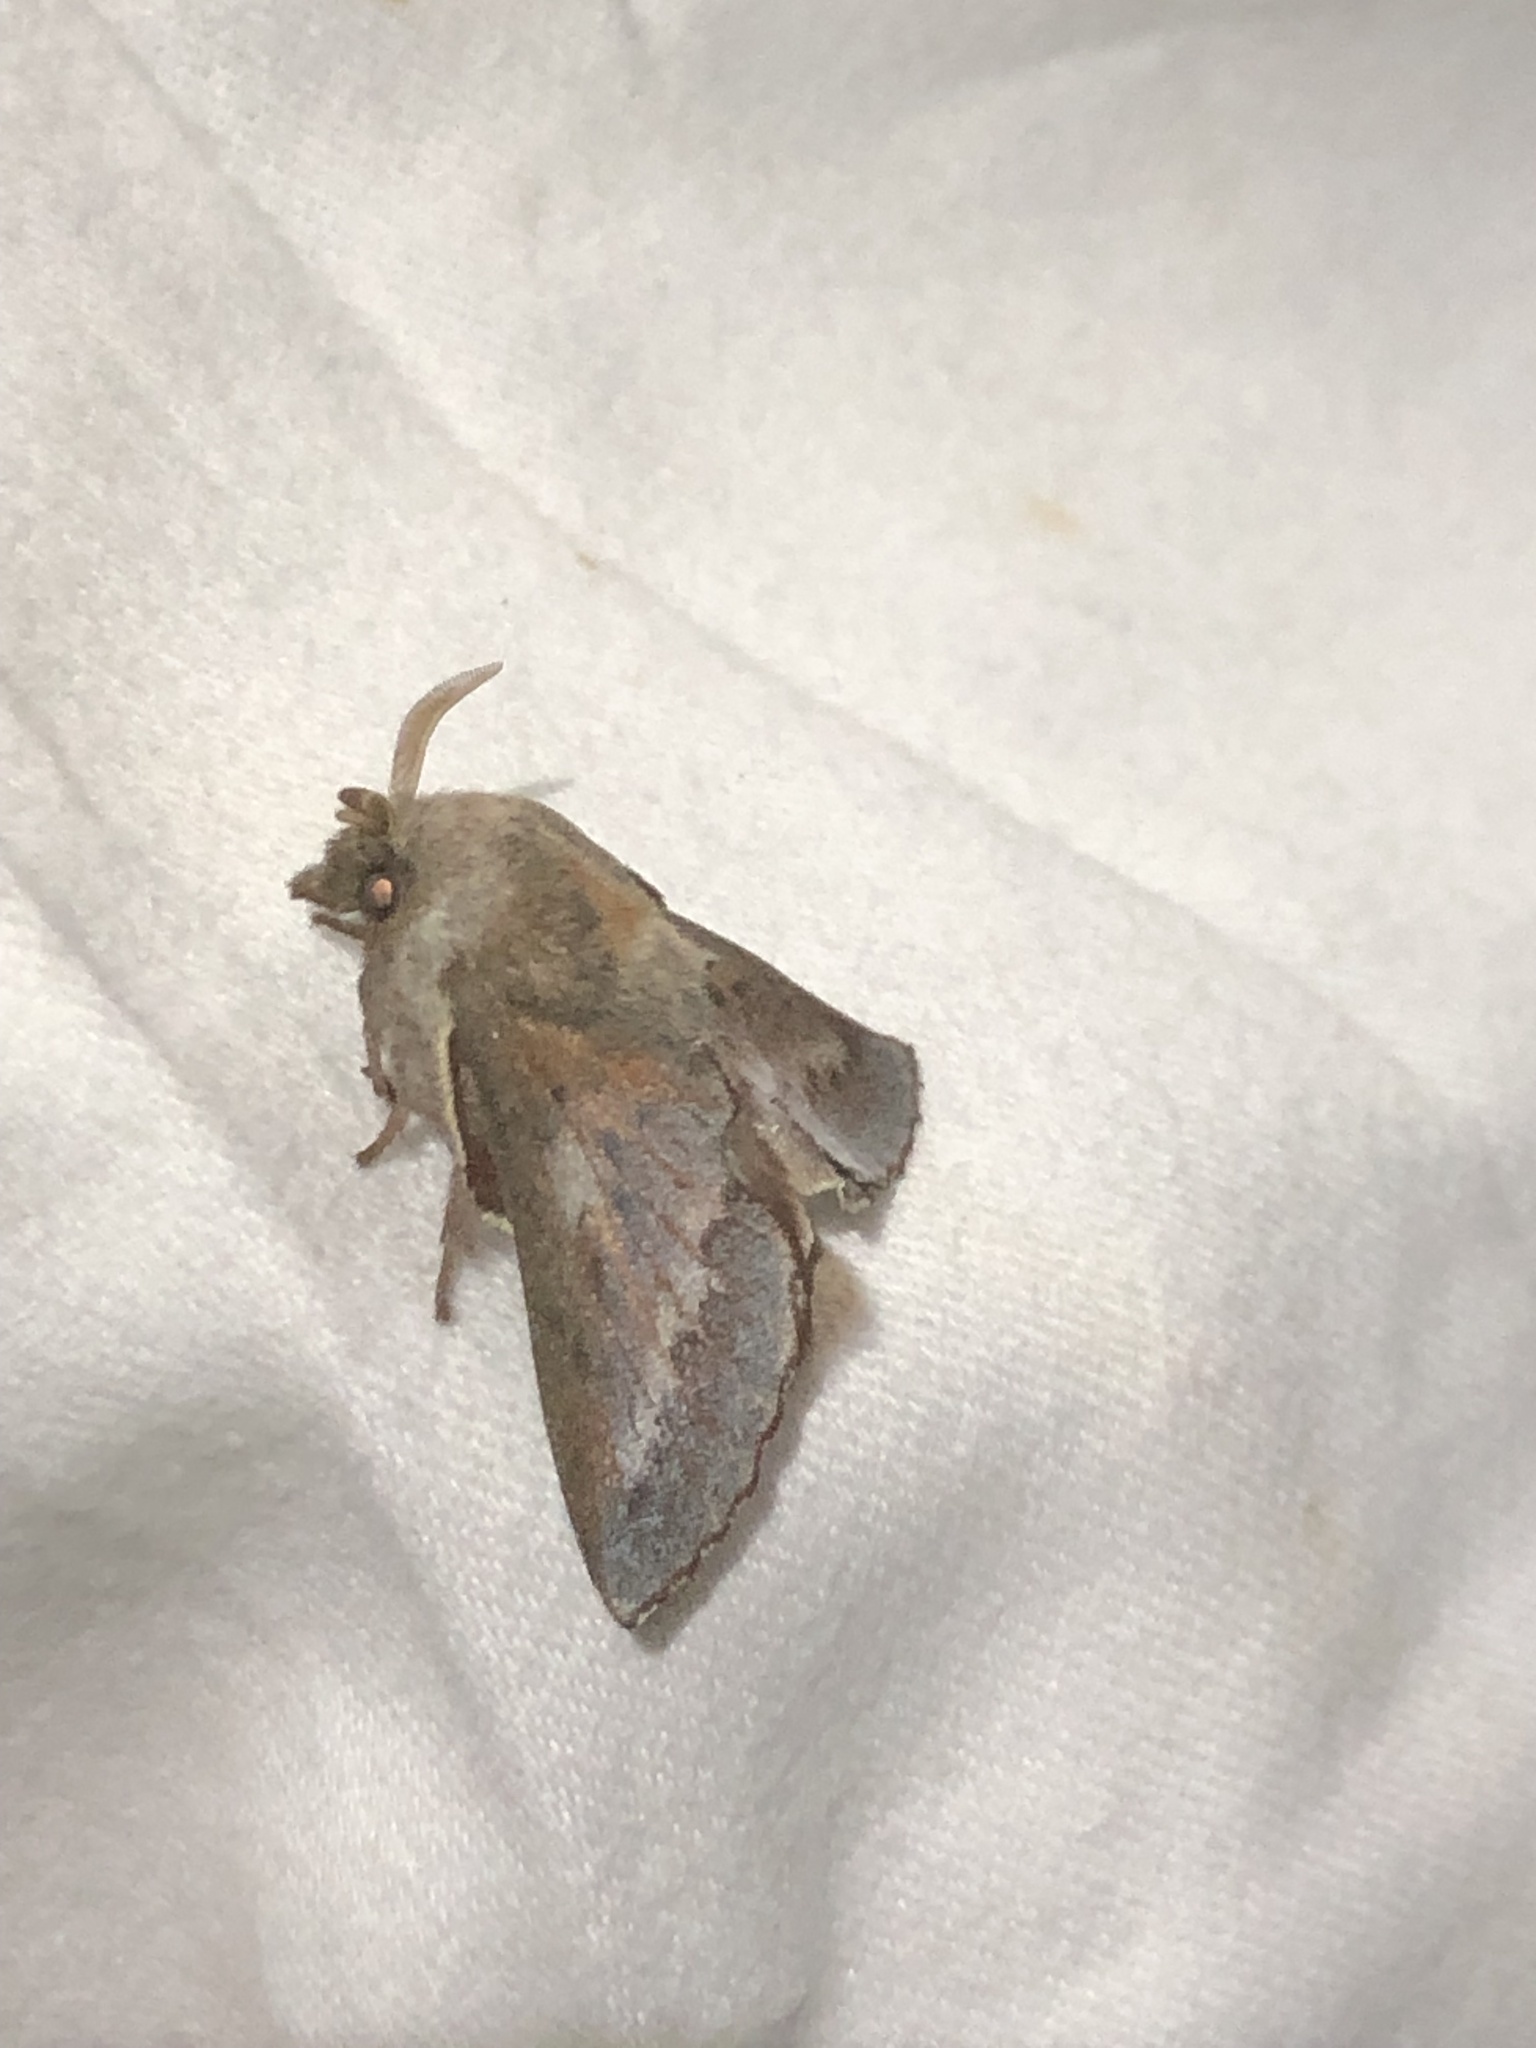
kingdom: Animalia
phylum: Arthropoda
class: Insecta
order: Lepidoptera
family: Lasiocampidae
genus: Phyllodesma
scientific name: Phyllodesma americana
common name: American lappet moth
